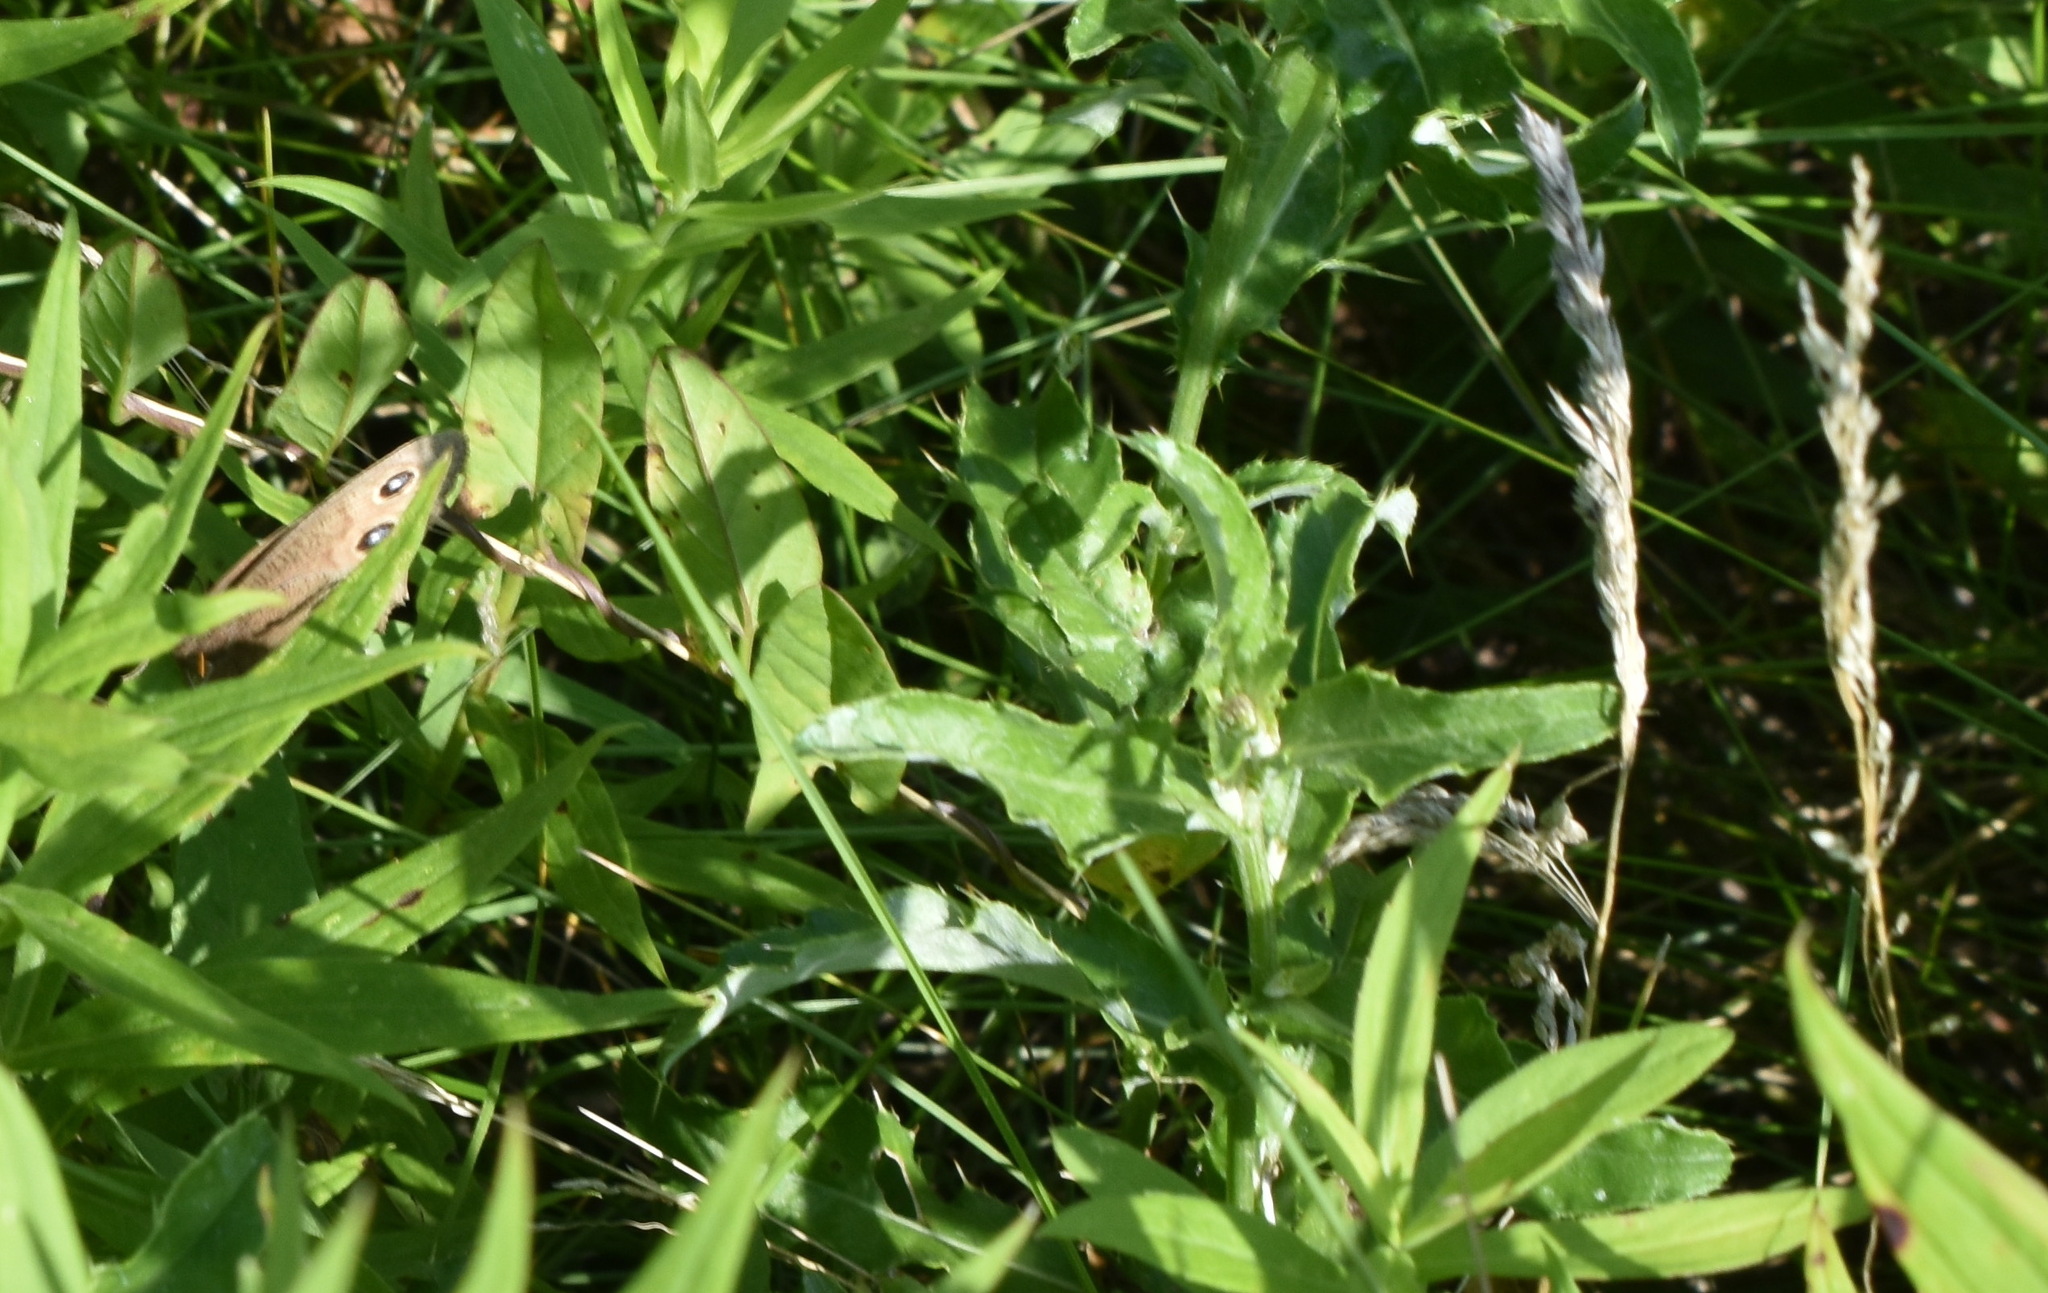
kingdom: Animalia
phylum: Arthropoda
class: Insecta
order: Lepidoptera
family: Nymphalidae
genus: Cercyonis
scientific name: Cercyonis pegala
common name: Common wood-nymph
